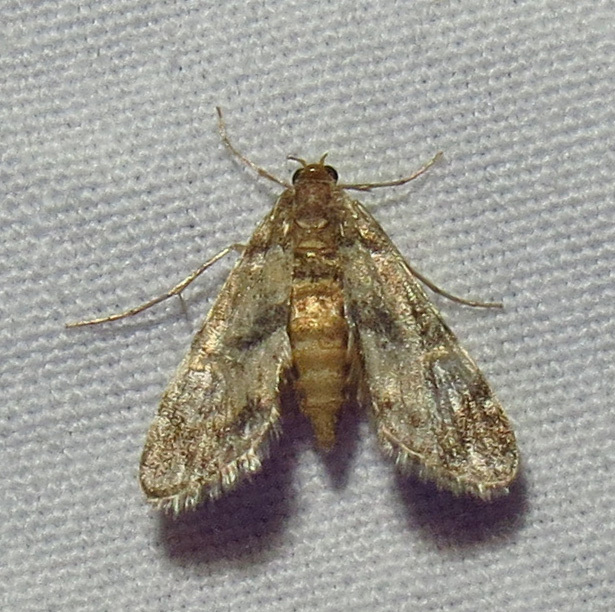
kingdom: Animalia
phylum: Arthropoda
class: Insecta
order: Lepidoptera
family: Crambidae
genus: Elophila
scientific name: Elophila obliteralis
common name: Waterlily leafcutter moth
